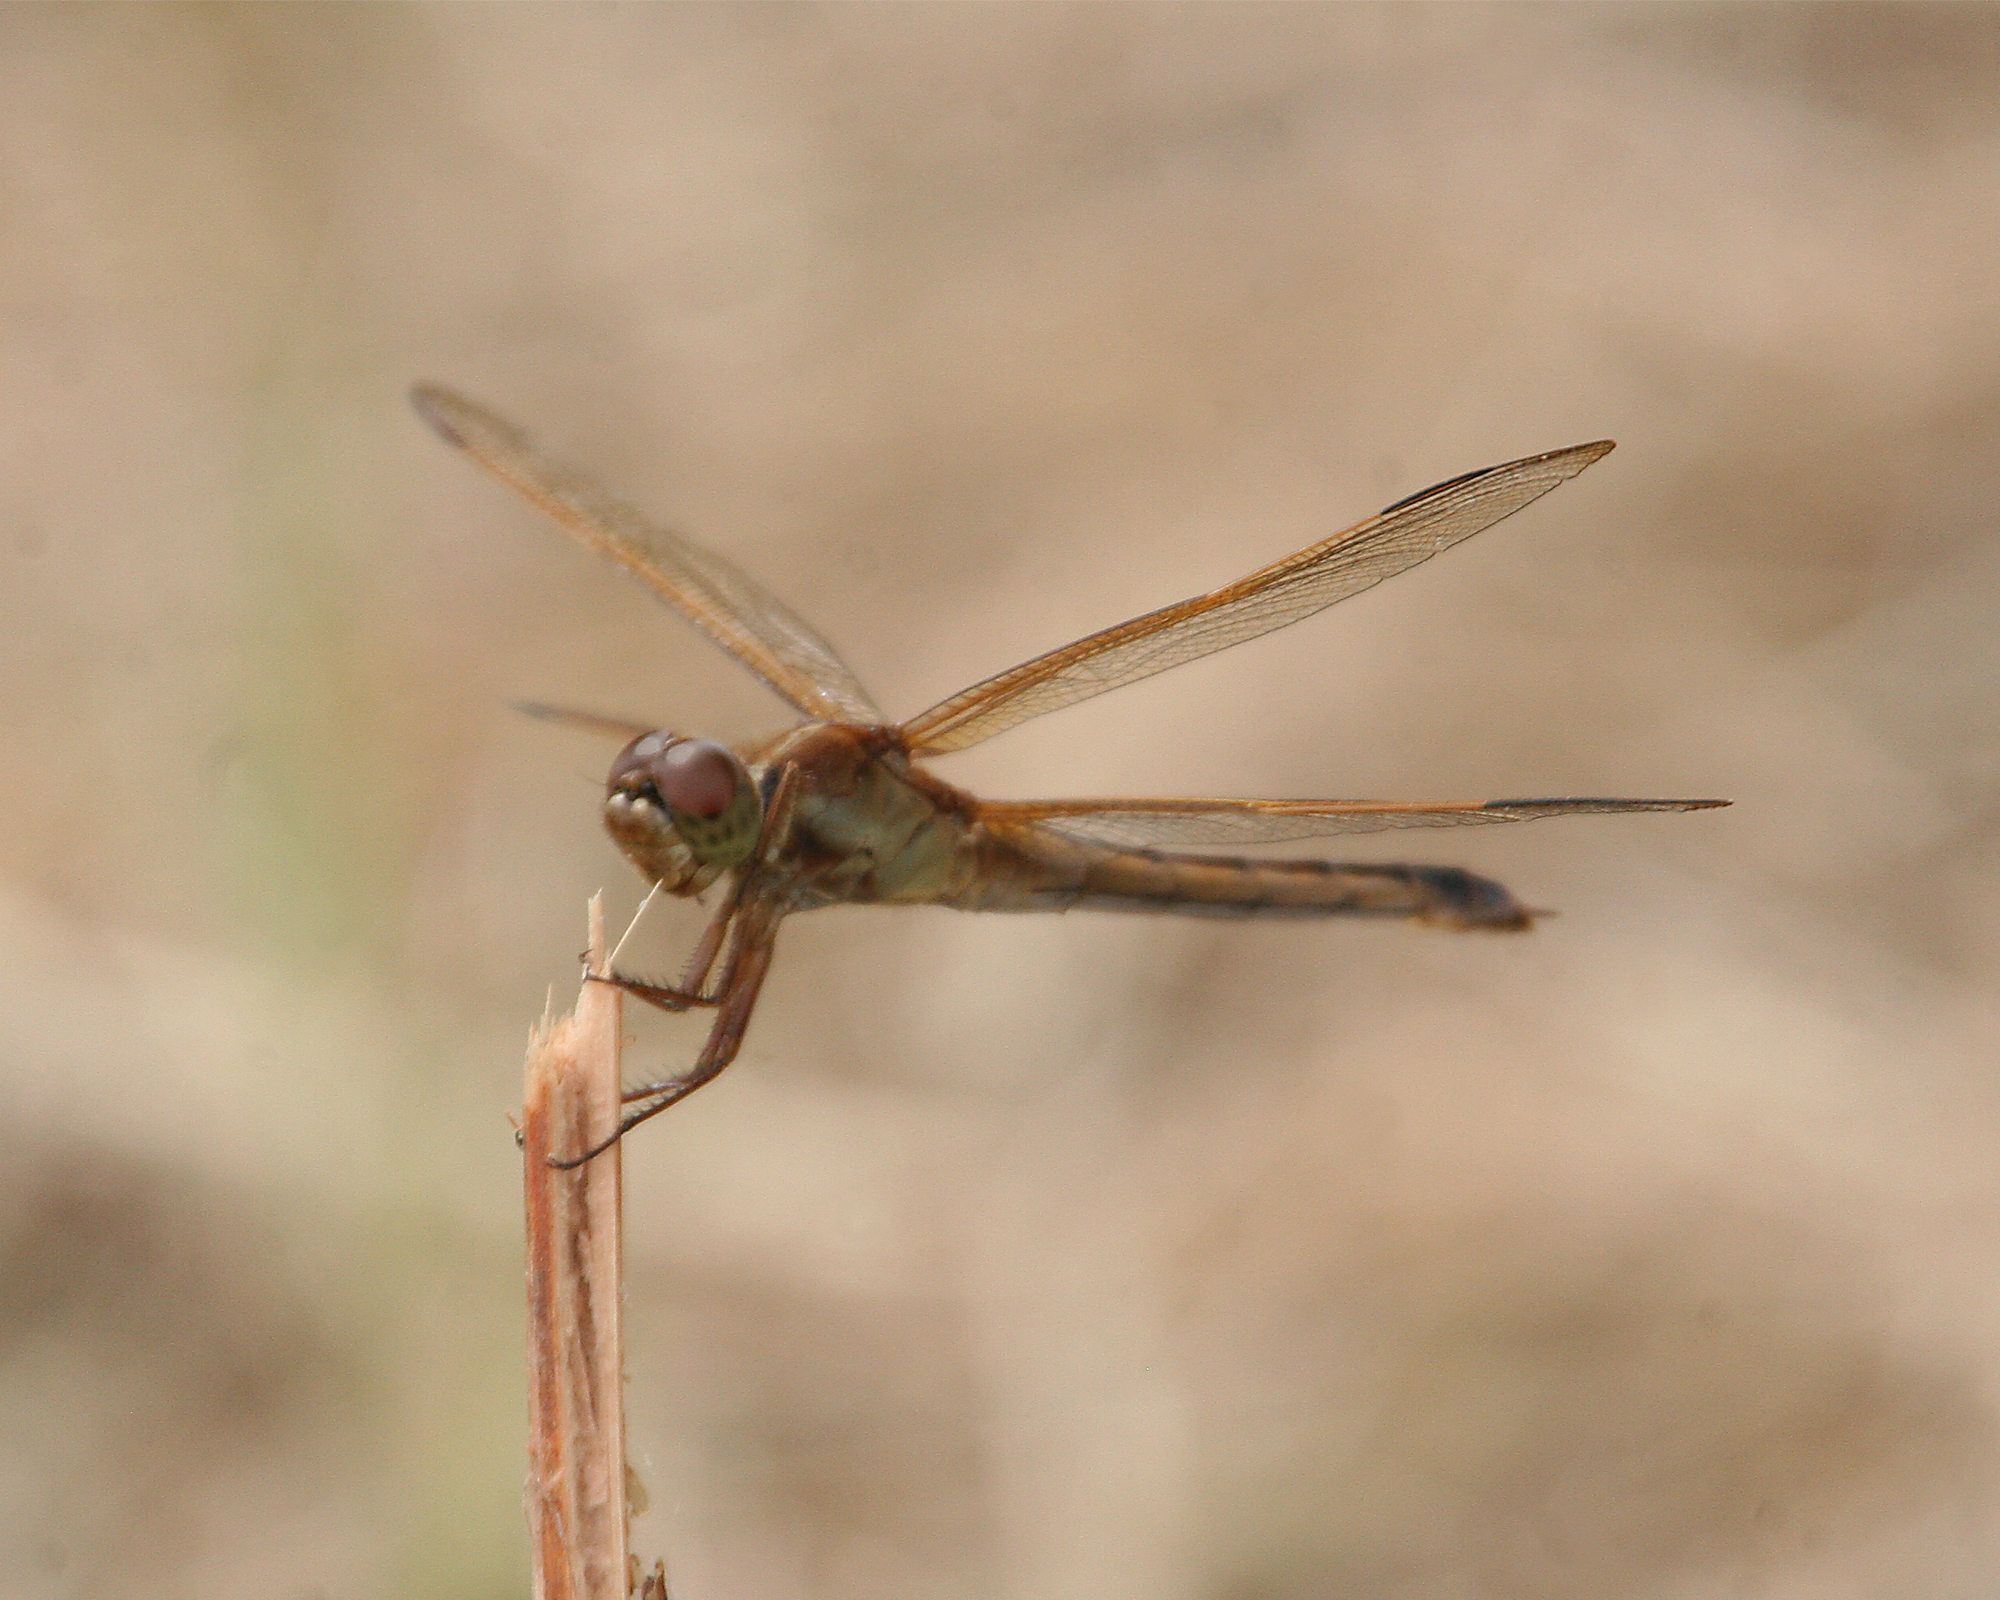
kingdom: Animalia
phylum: Arthropoda
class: Insecta
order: Odonata
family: Libellulidae
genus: Libellula
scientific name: Libellula needhami
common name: Needham's skimmer
